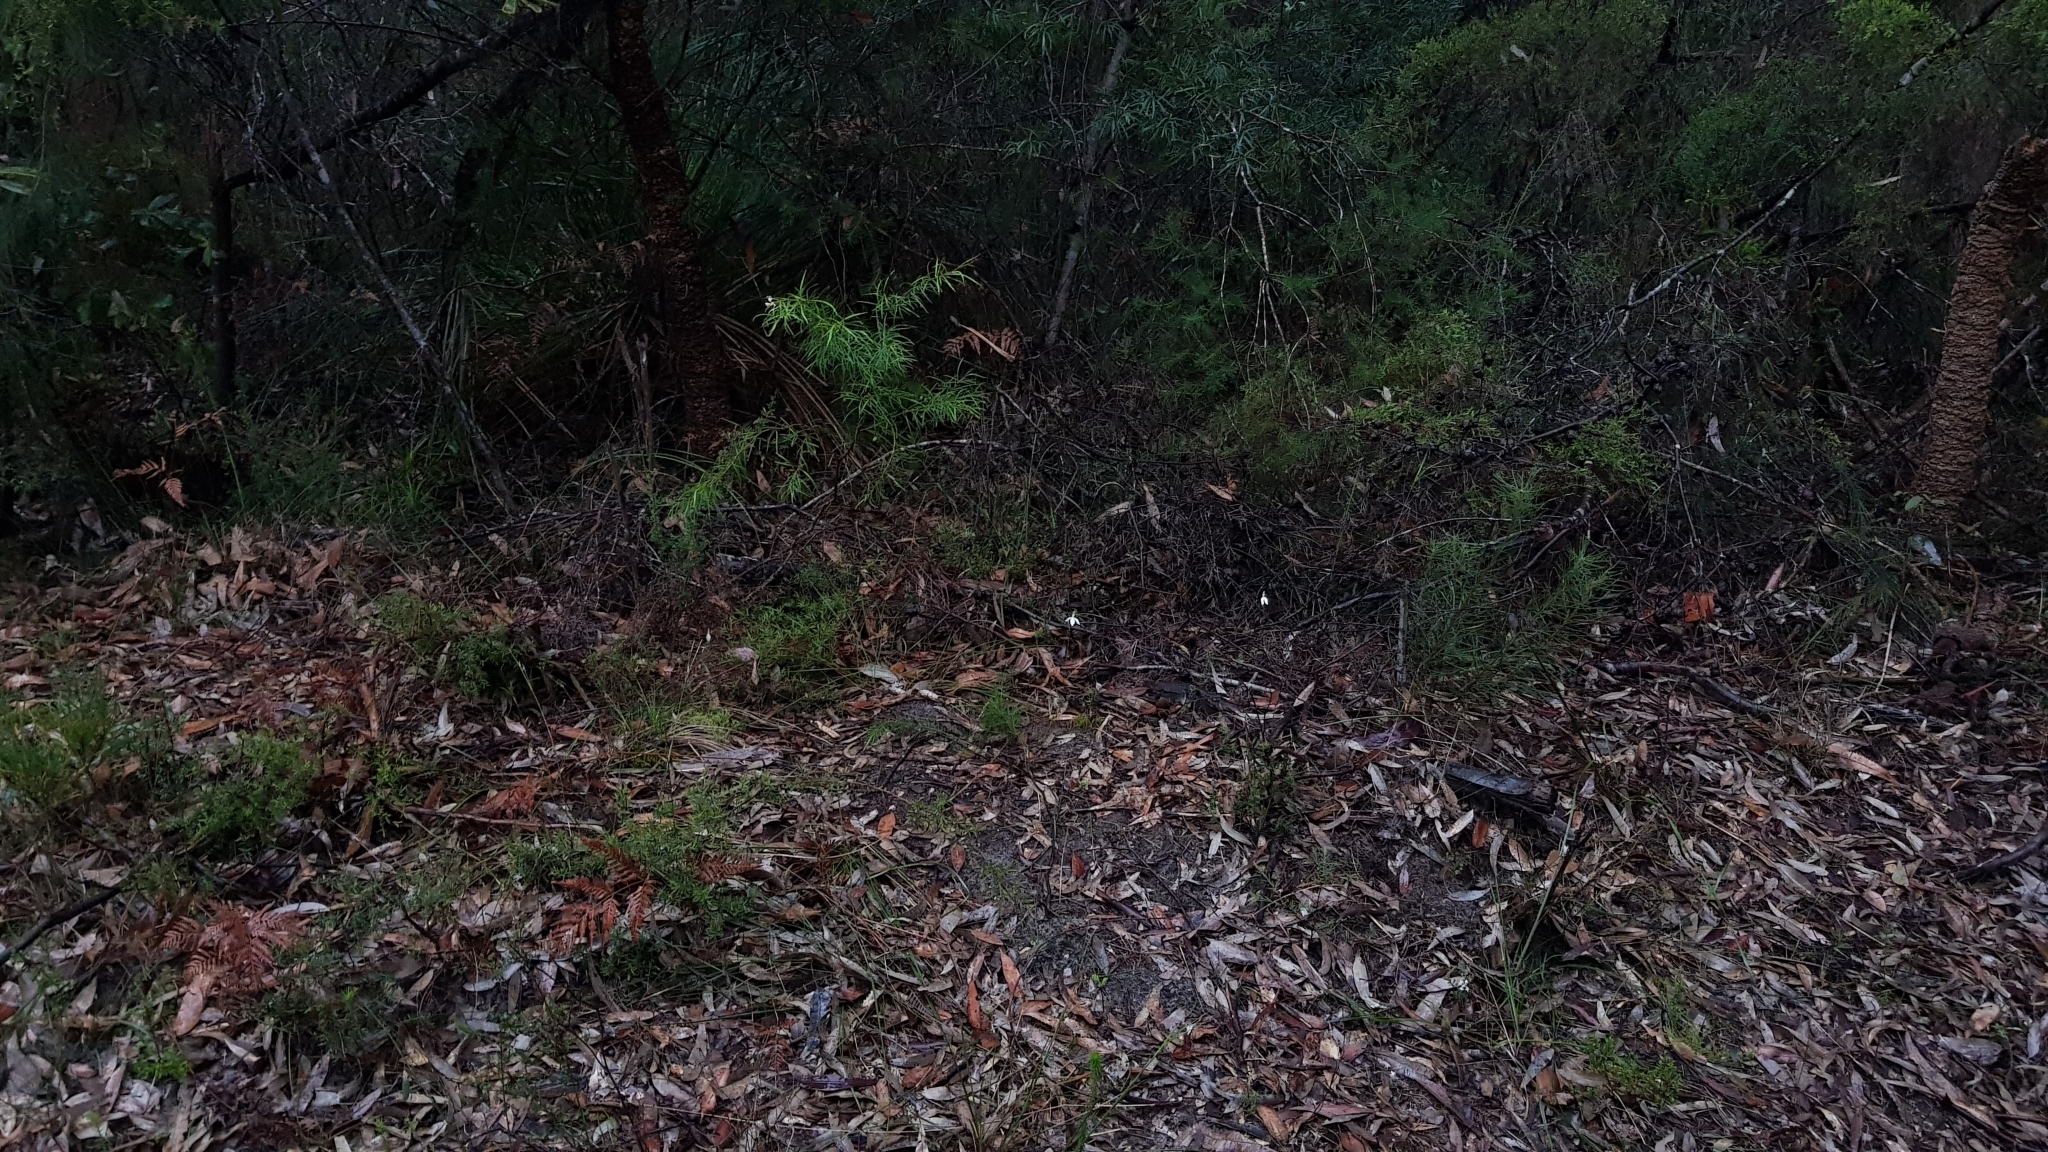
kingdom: Plantae
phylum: Tracheophyta
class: Liliopsida
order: Asparagales
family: Orchidaceae
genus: Caladenia
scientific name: Caladenia catenata
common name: White caladenia
